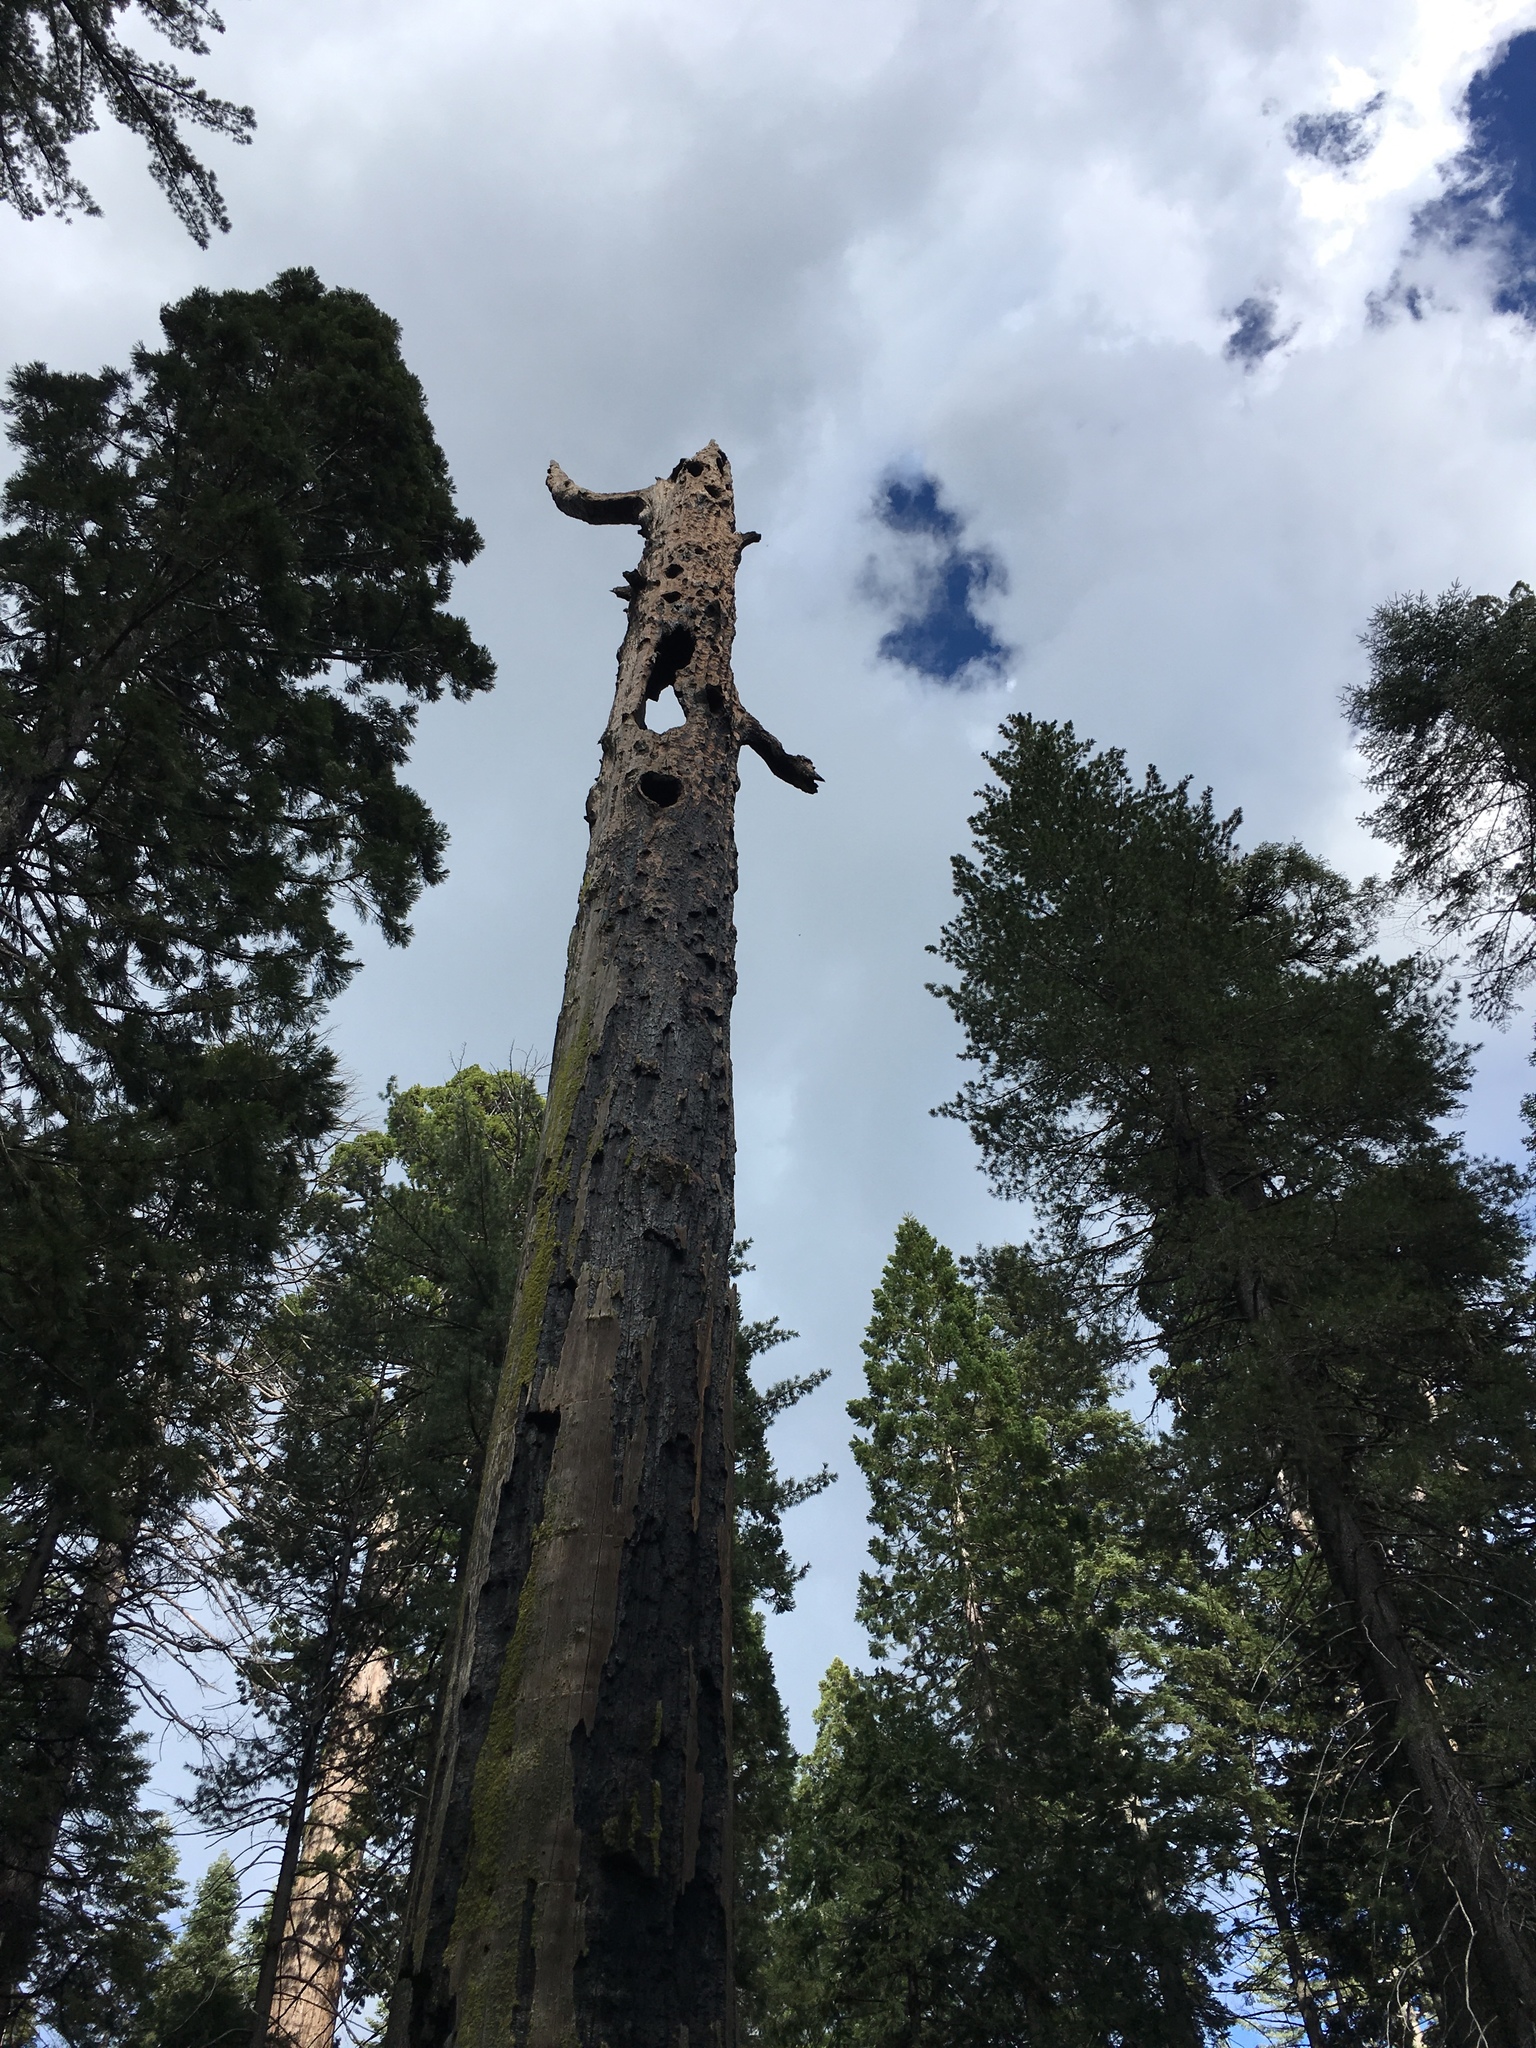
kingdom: Plantae
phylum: Tracheophyta
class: Pinopsida
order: Pinales
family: Cupressaceae
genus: Sequoiadendron
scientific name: Sequoiadendron giganteum
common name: Wellingtonia
